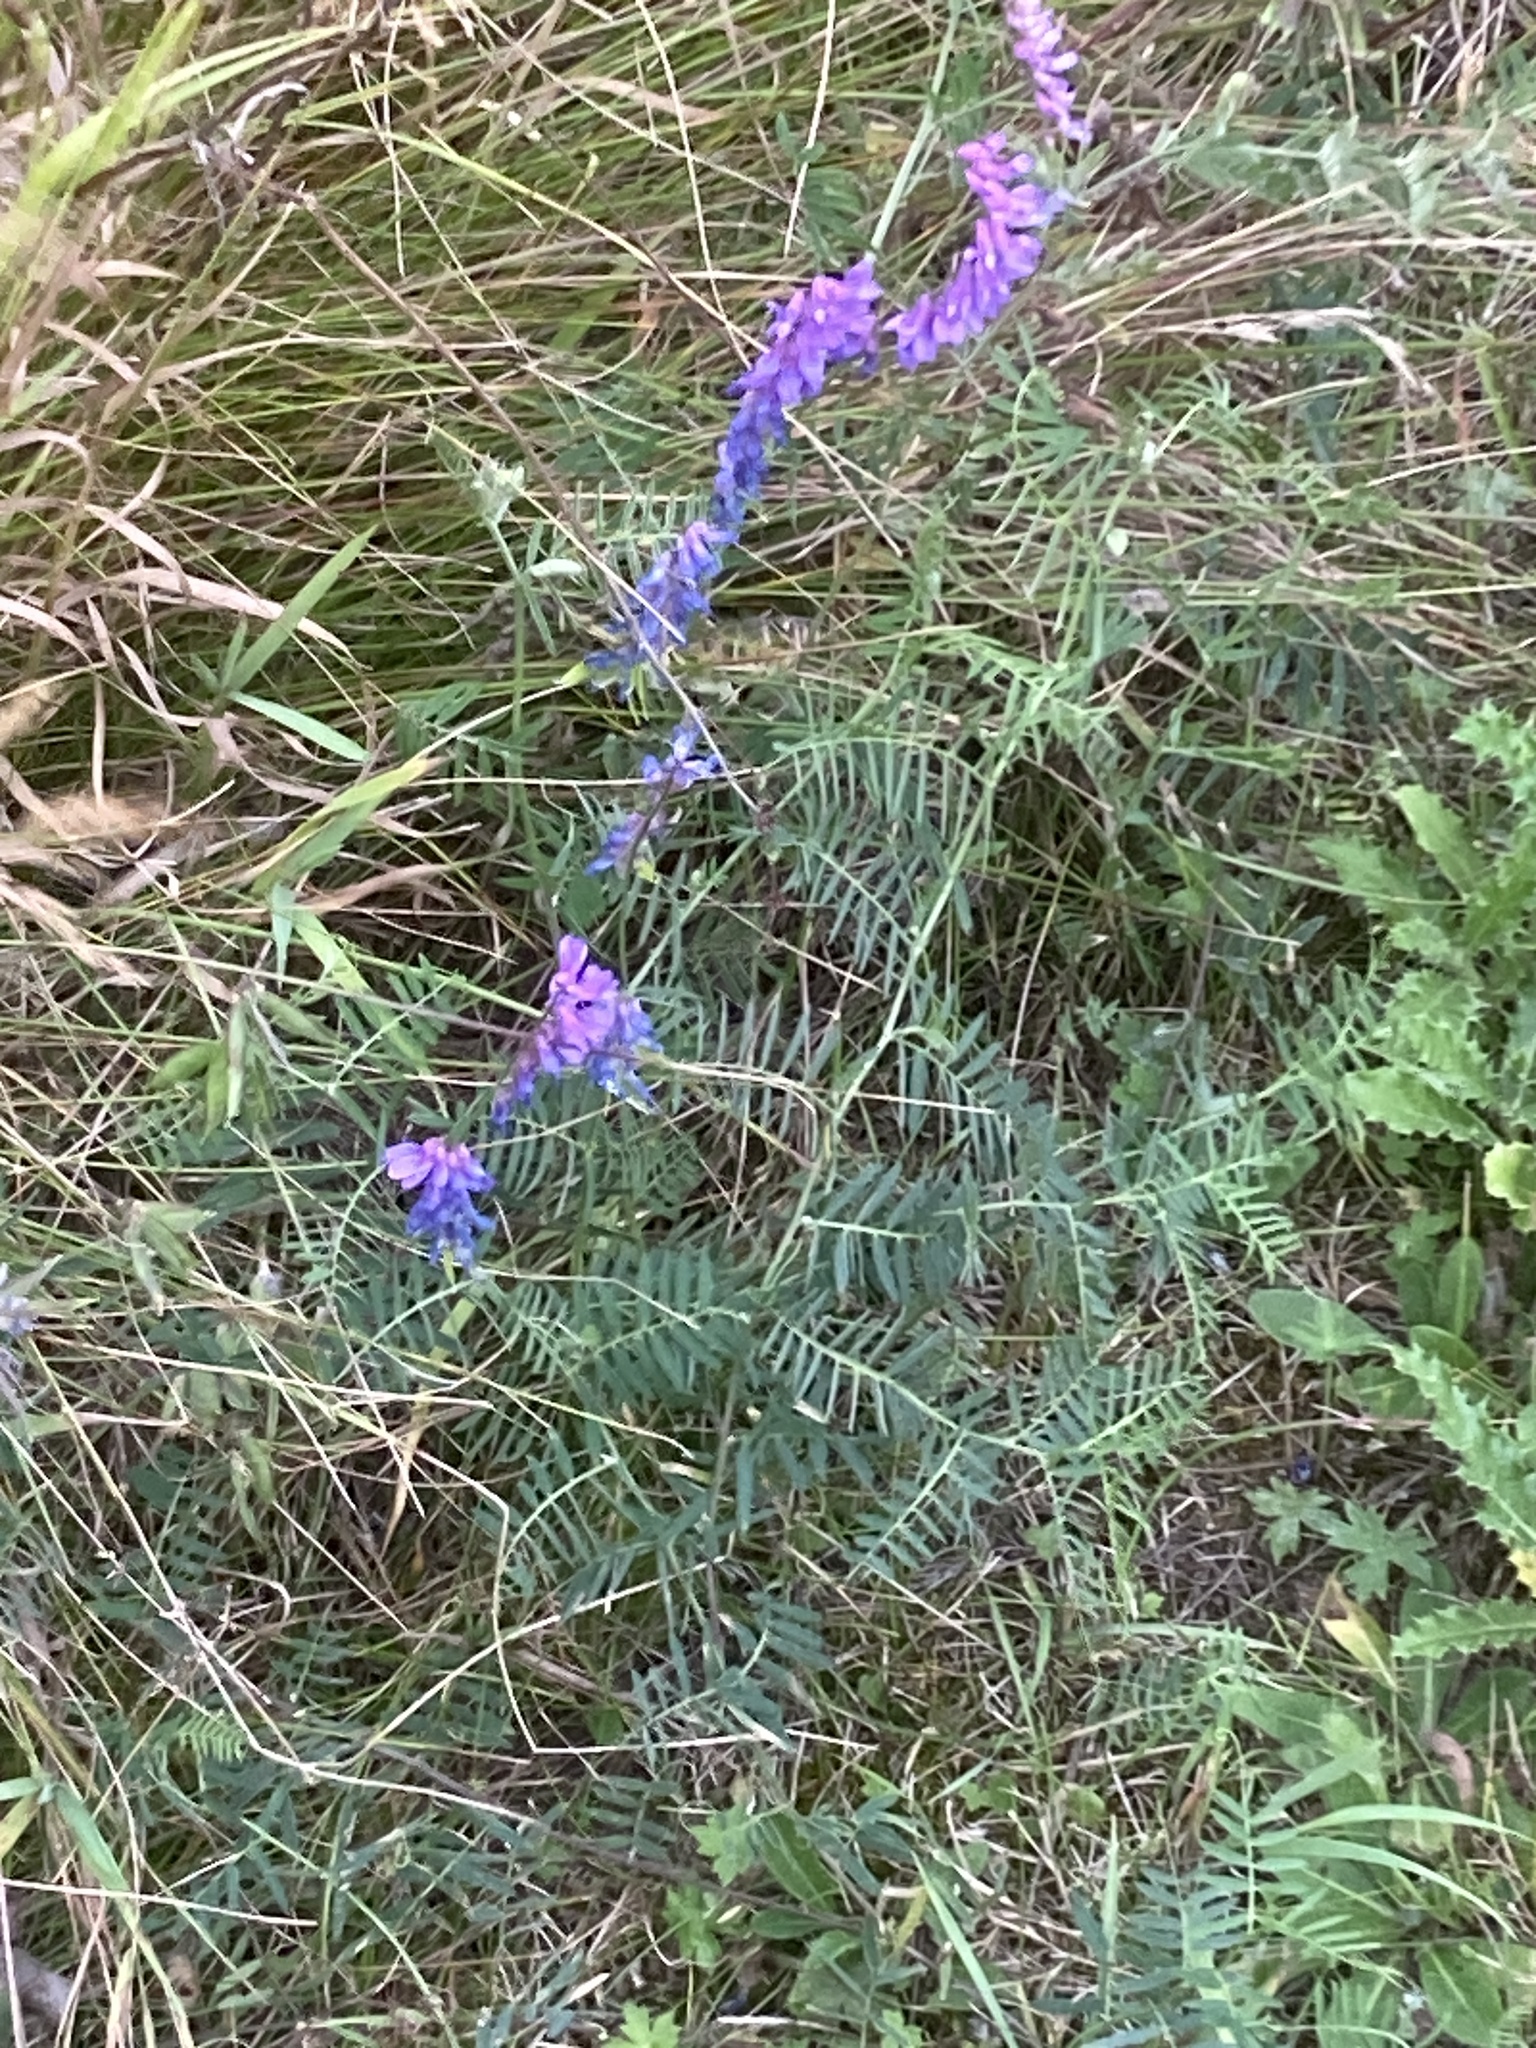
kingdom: Plantae
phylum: Tracheophyta
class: Magnoliopsida
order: Fabales
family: Fabaceae
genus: Vicia
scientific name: Vicia cracca
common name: Bird vetch
